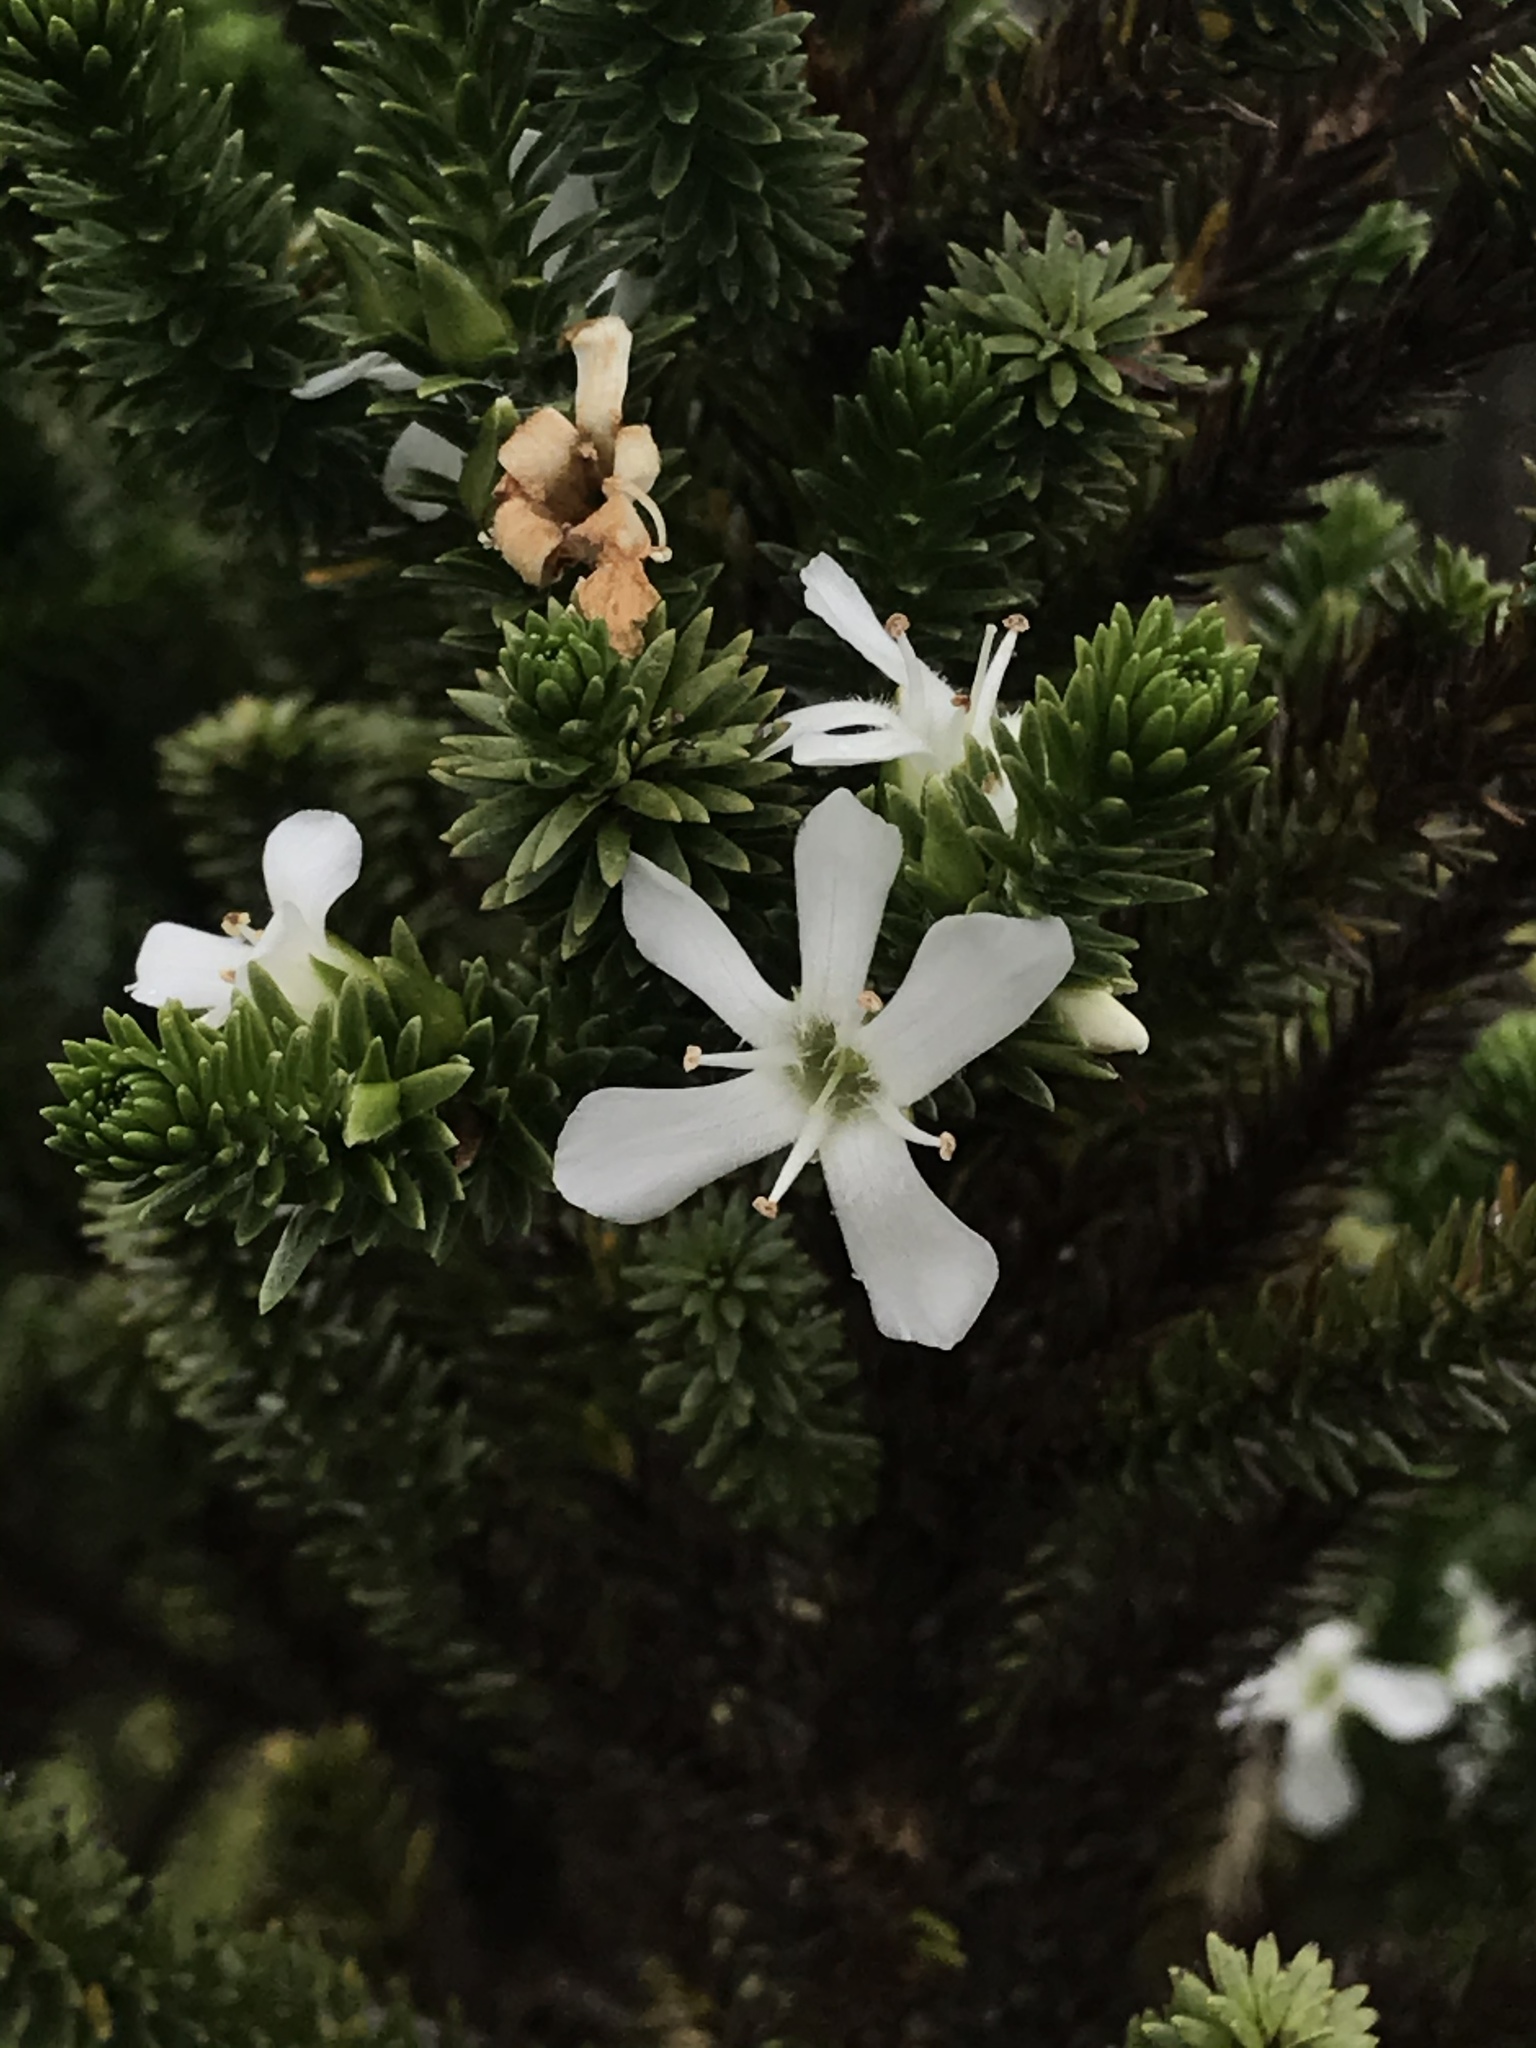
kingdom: Plantae
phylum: Tracheophyta
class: Magnoliopsida
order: Lamiales
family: Plantaginaceae
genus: Aragoa
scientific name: Aragoa abietina
